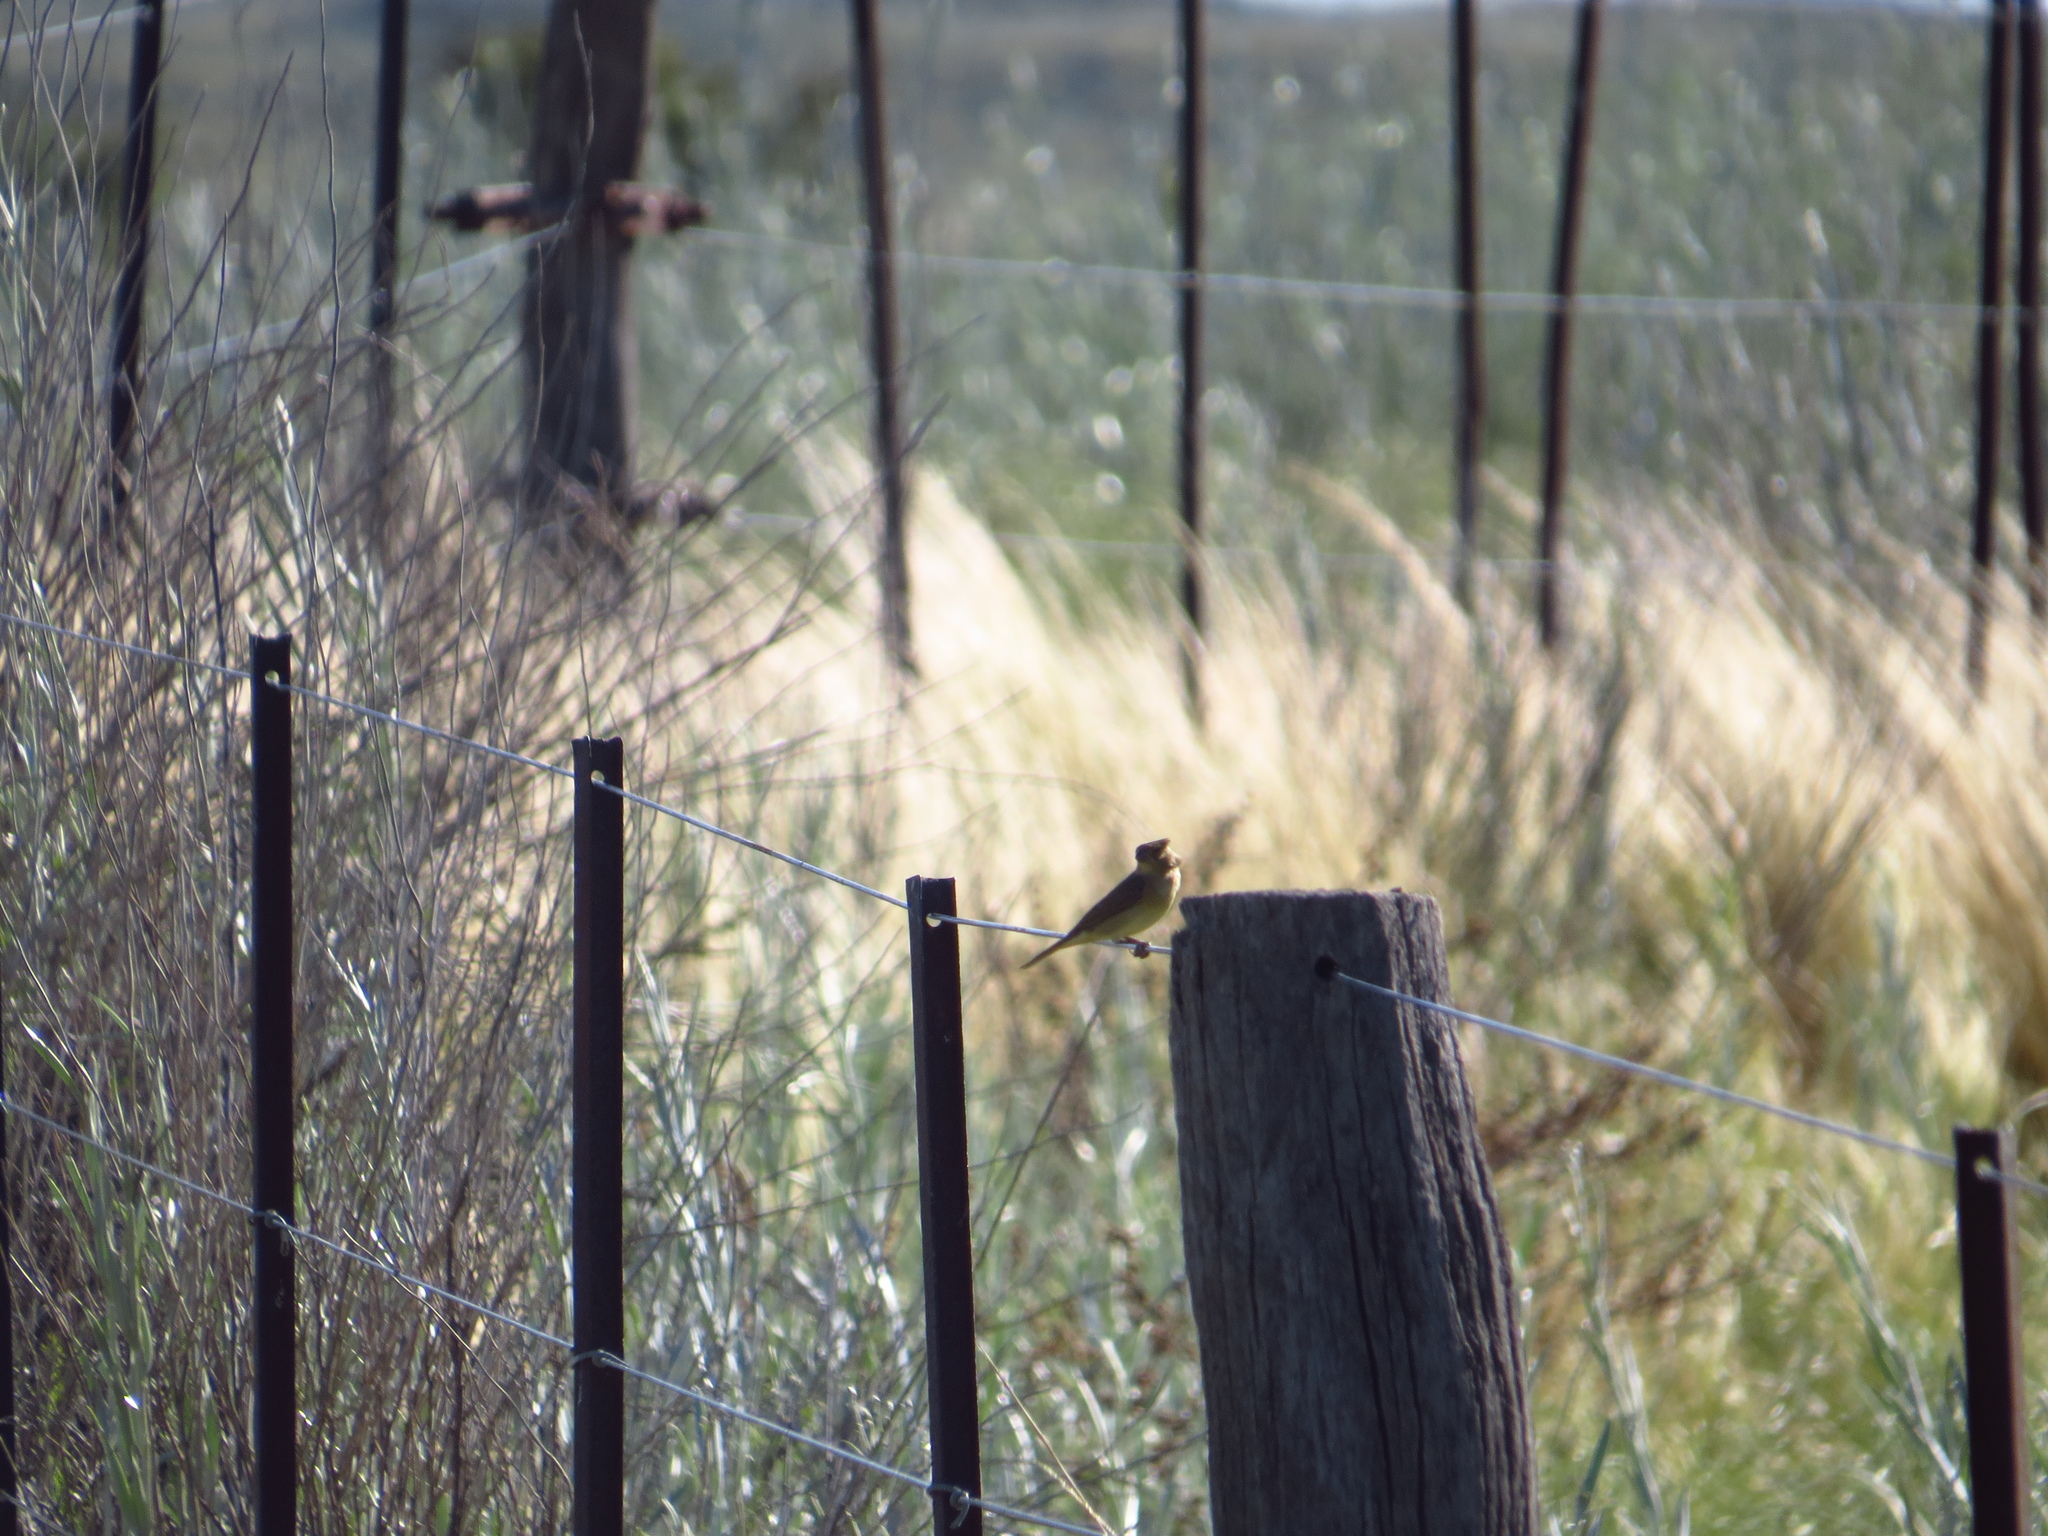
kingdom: Animalia
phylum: Chordata
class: Aves
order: Passeriformes
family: Thraupidae
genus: Sicalis
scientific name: Sicalis luteola
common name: Grassland yellow-finch
